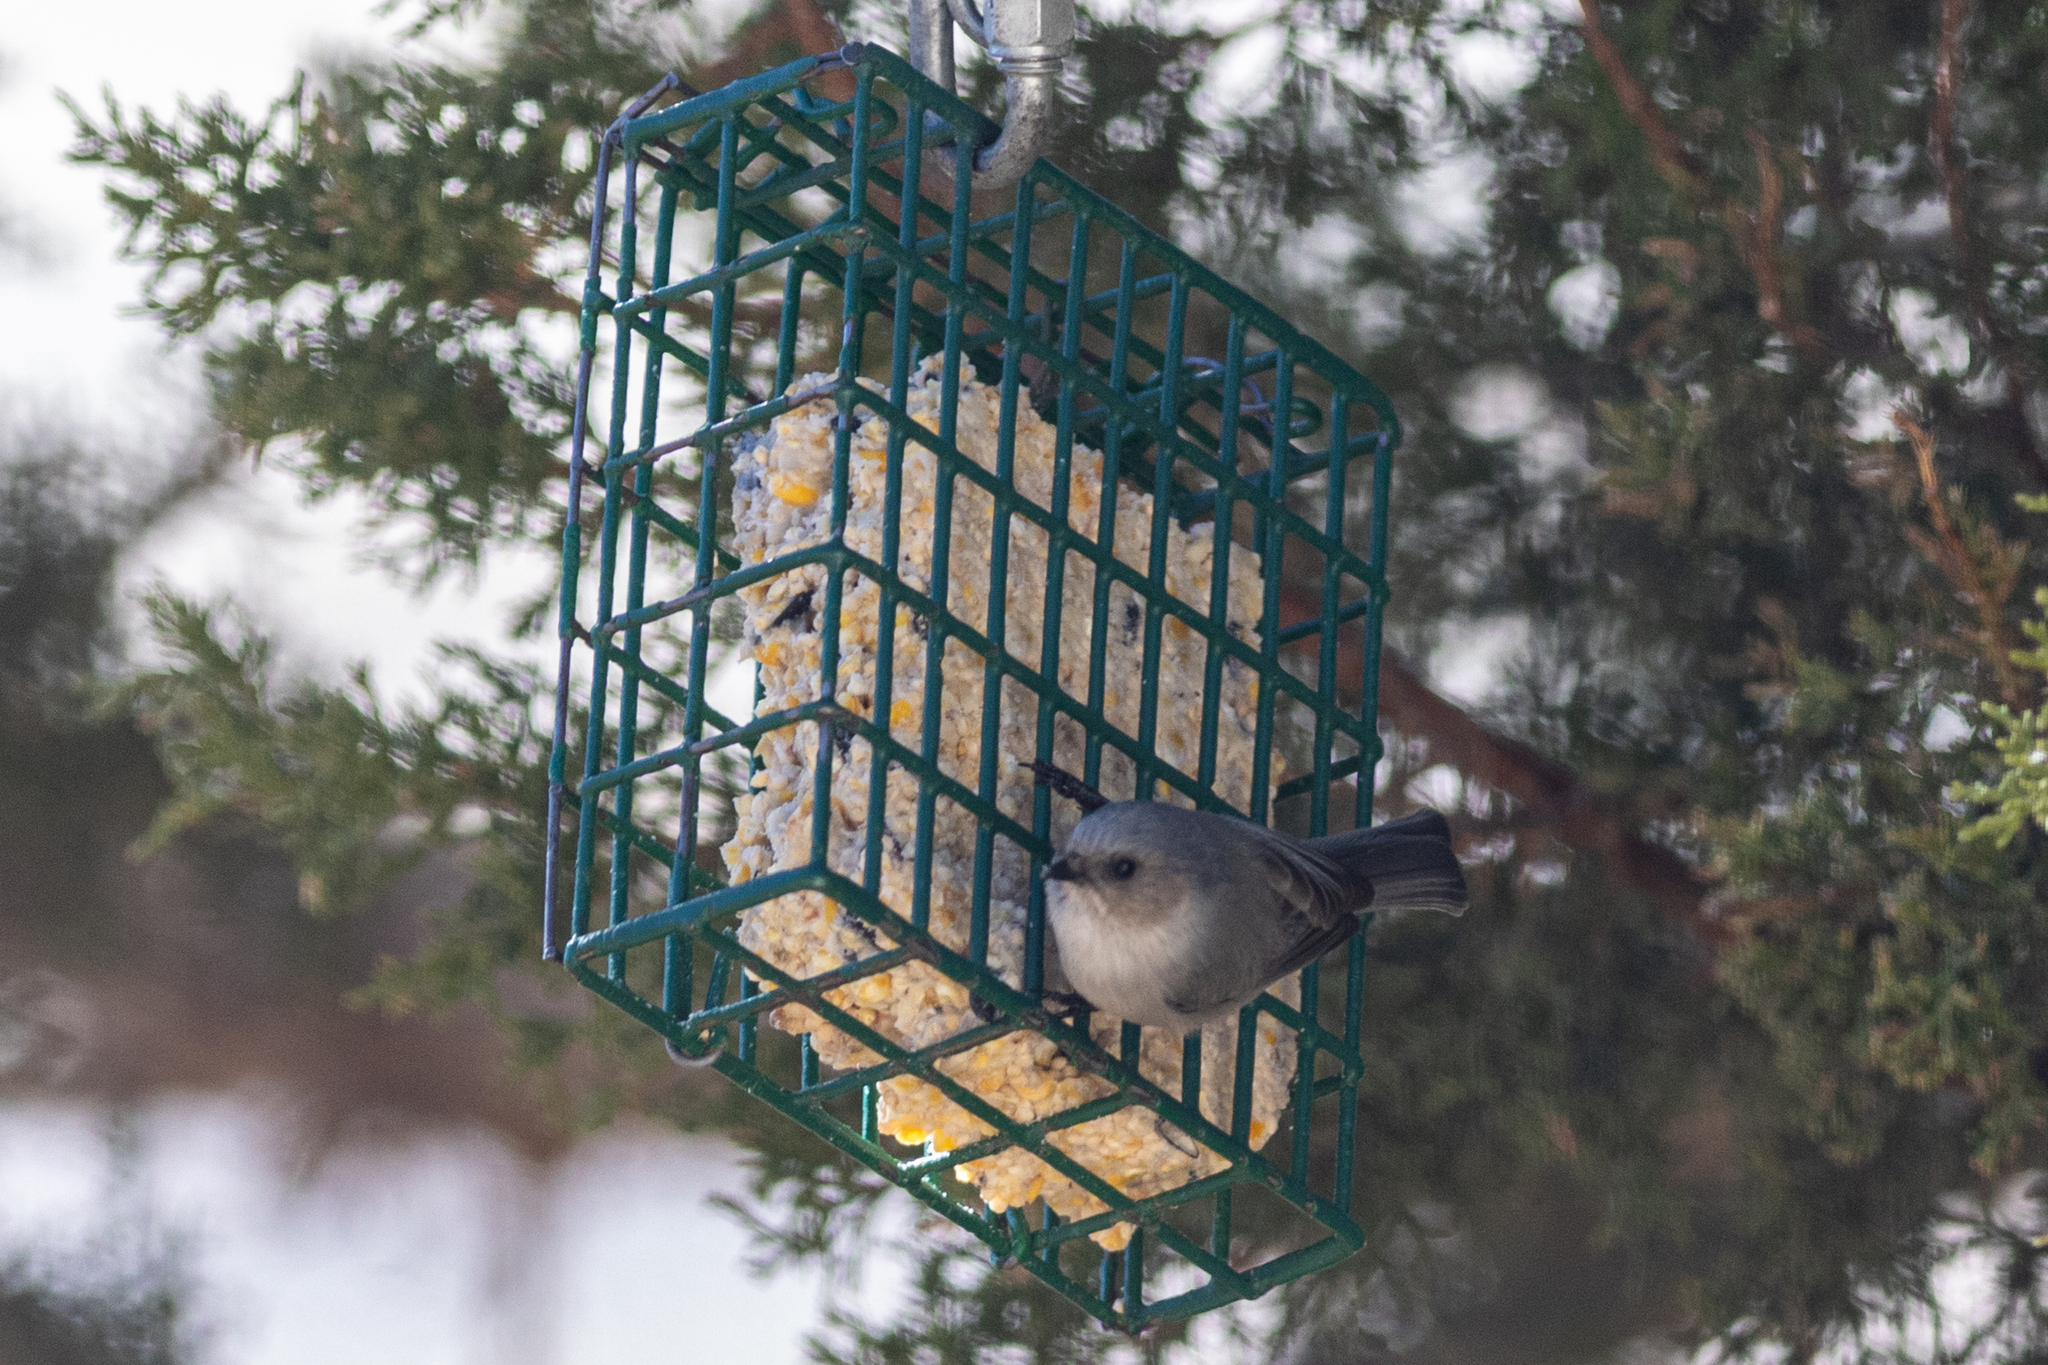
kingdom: Animalia
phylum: Chordata
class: Aves
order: Passeriformes
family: Aegithalidae
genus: Psaltriparus
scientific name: Psaltriparus minimus
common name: American bushtit
